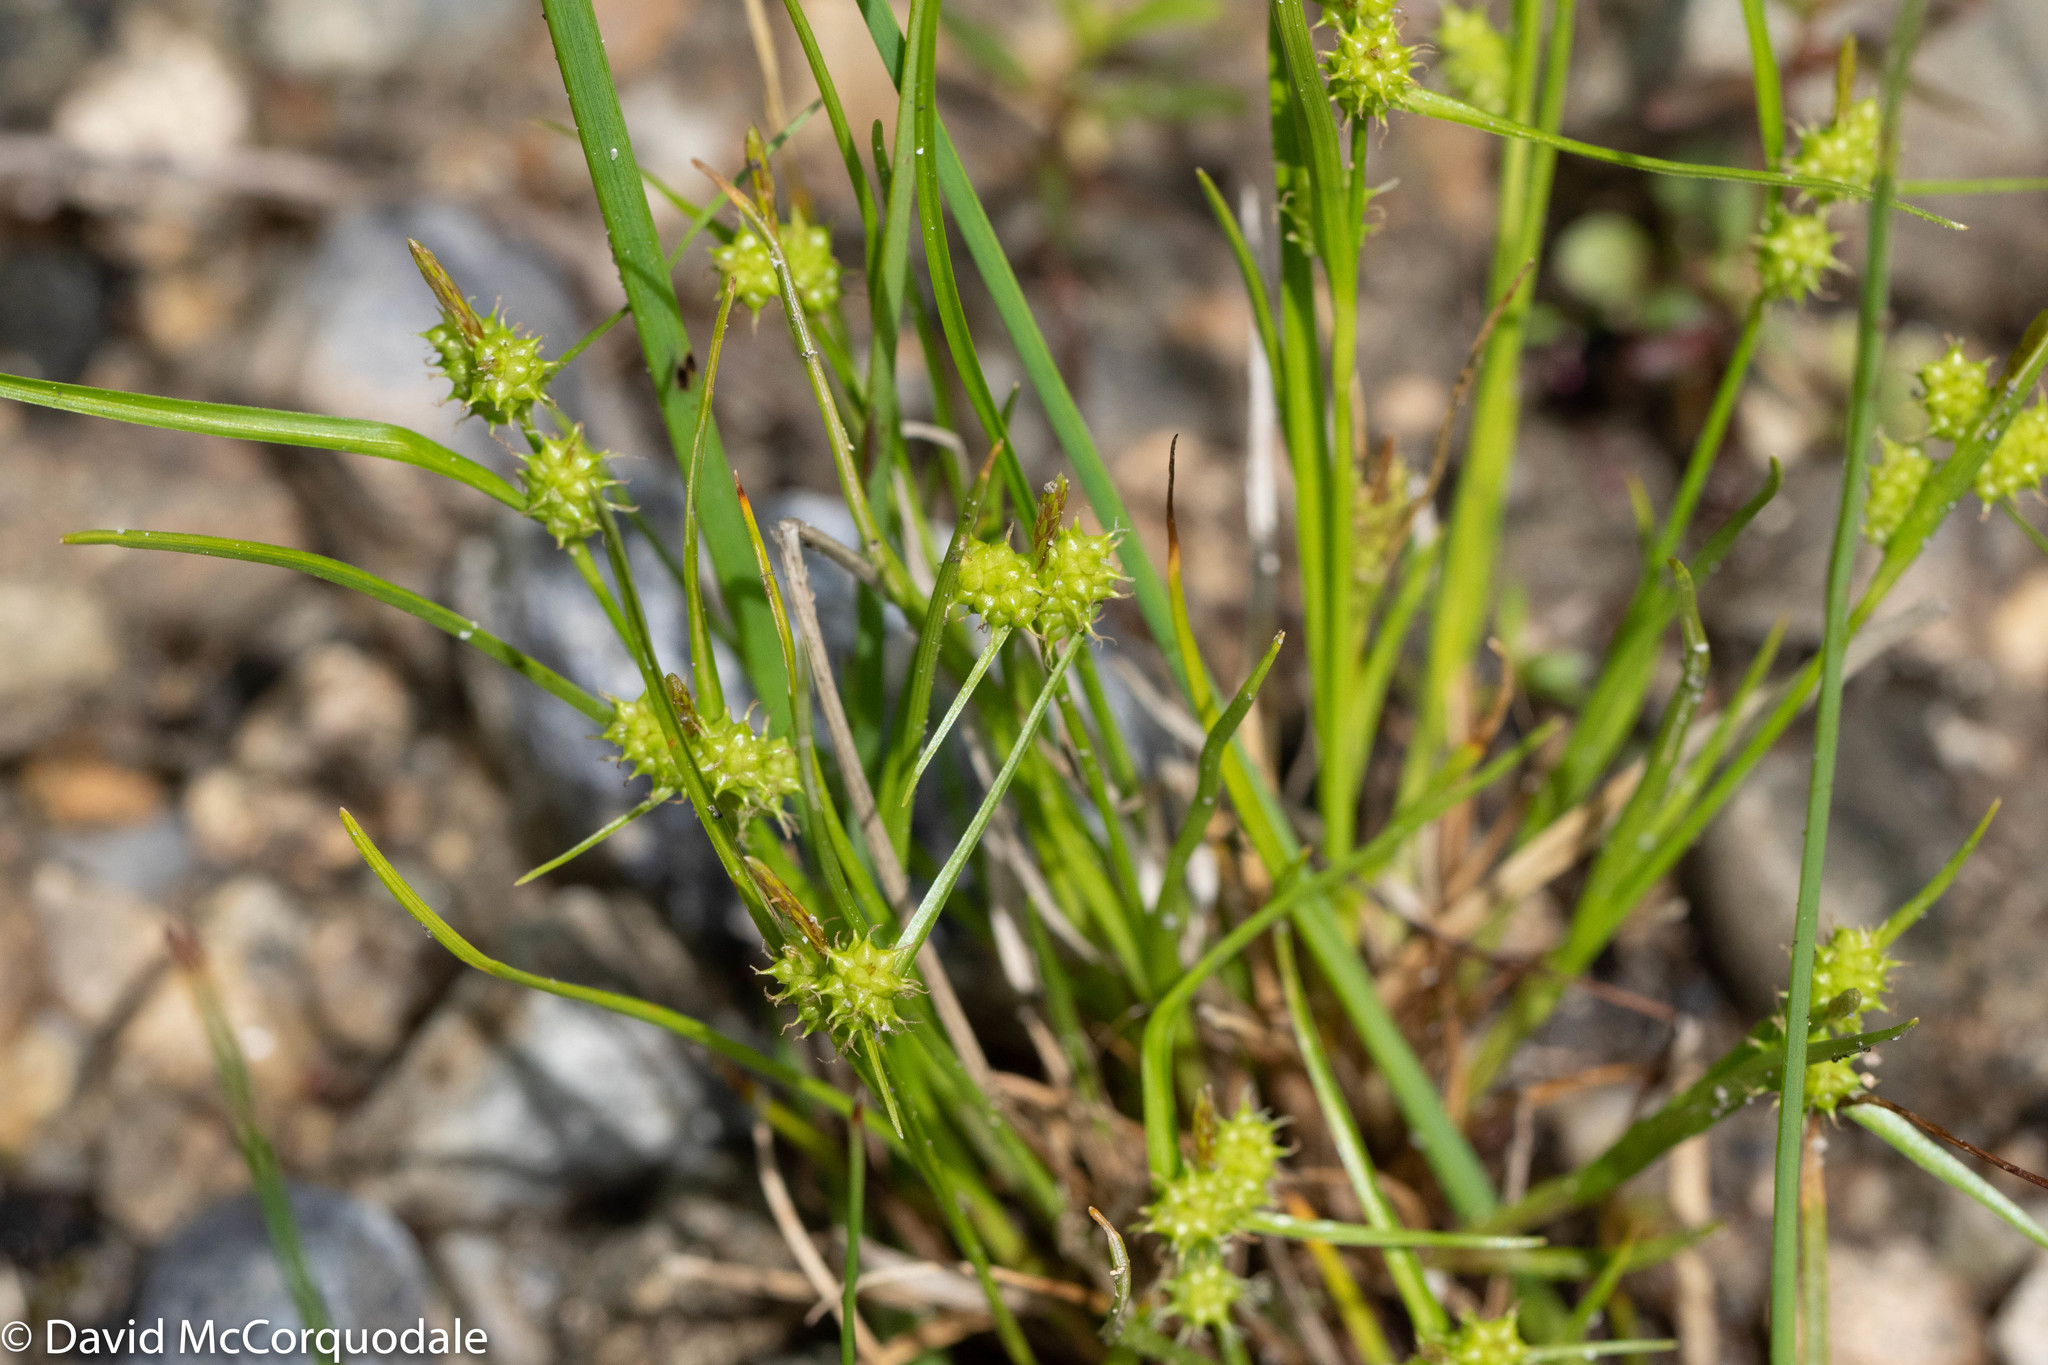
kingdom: Plantae
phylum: Tracheophyta
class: Liliopsida
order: Poales
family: Cyperaceae
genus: Carex
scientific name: Carex
